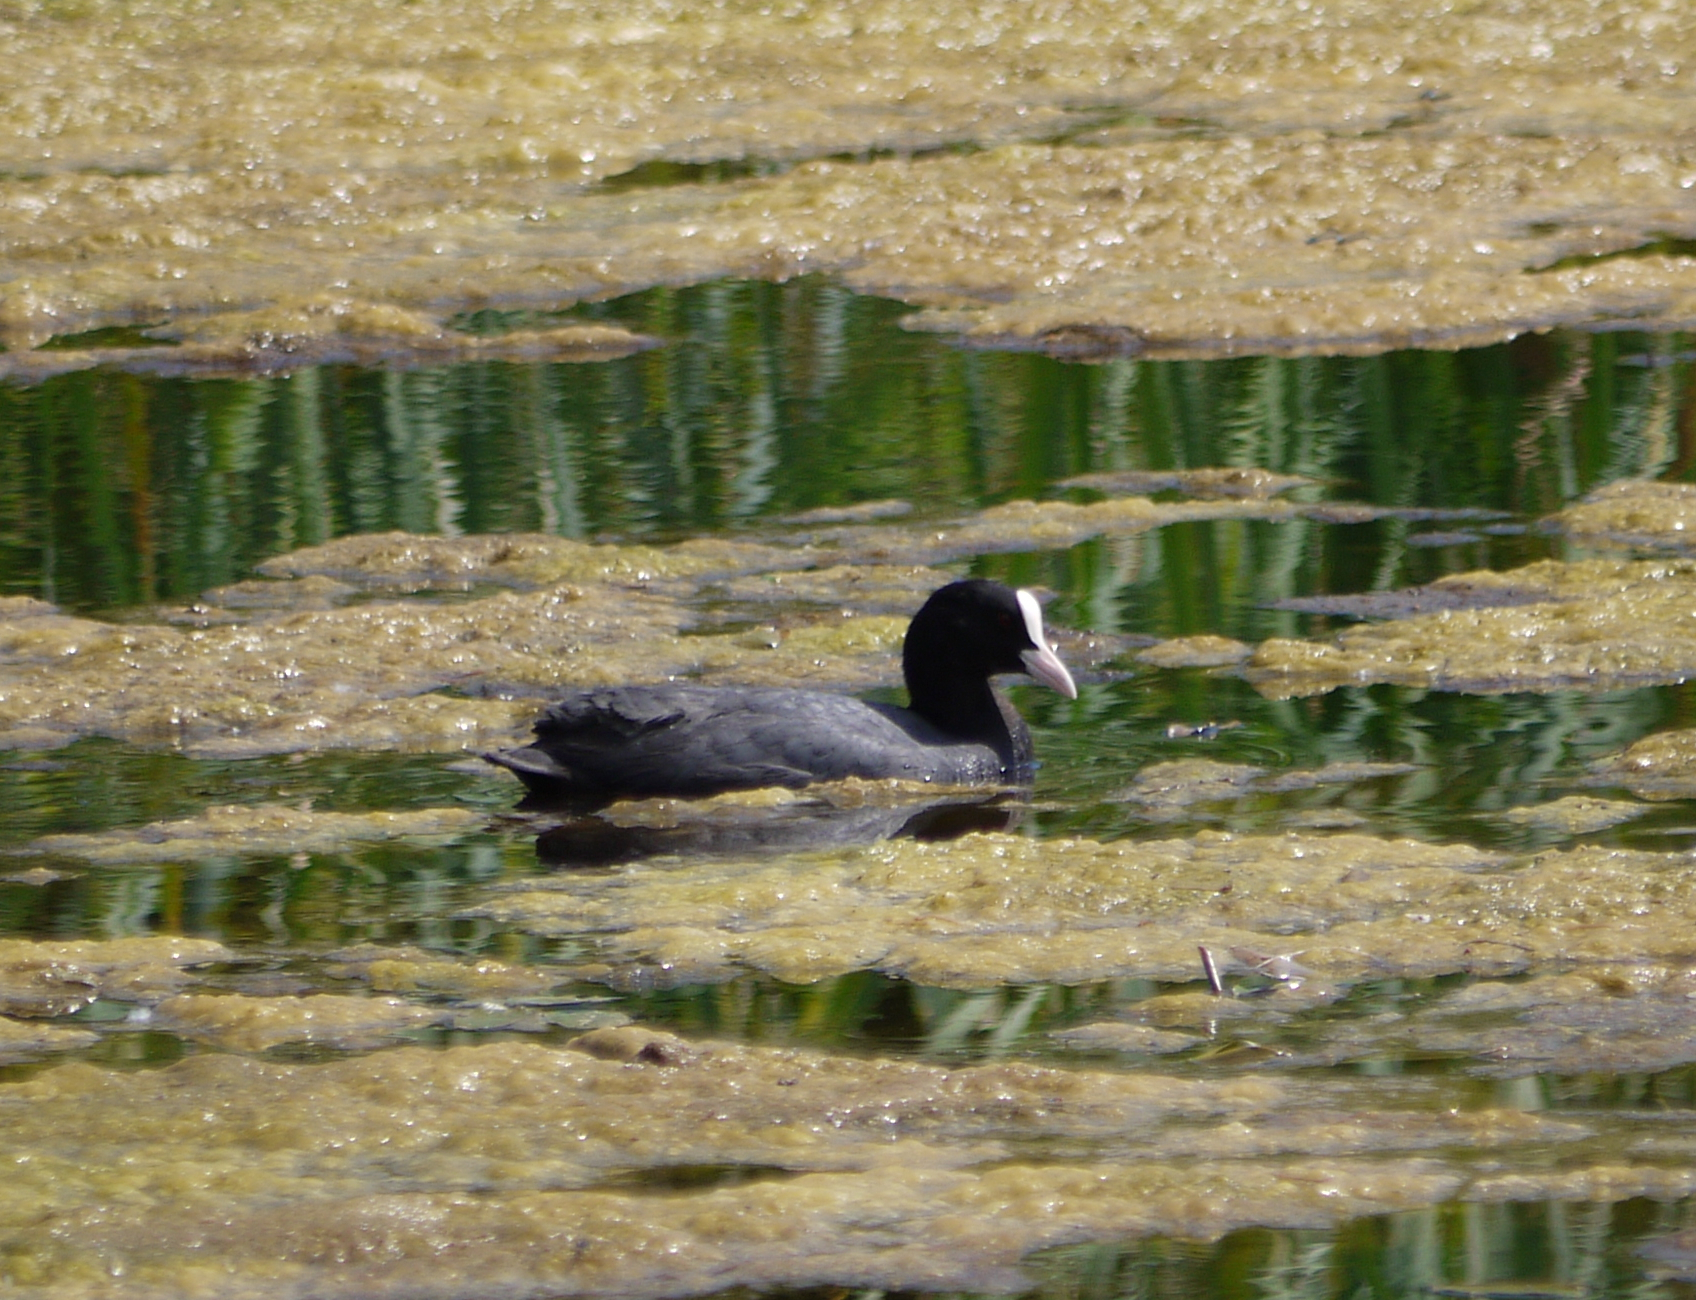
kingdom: Animalia
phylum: Chordata
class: Aves
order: Gruiformes
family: Rallidae
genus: Fulica
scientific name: Fulica atra
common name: Eurasian coot
